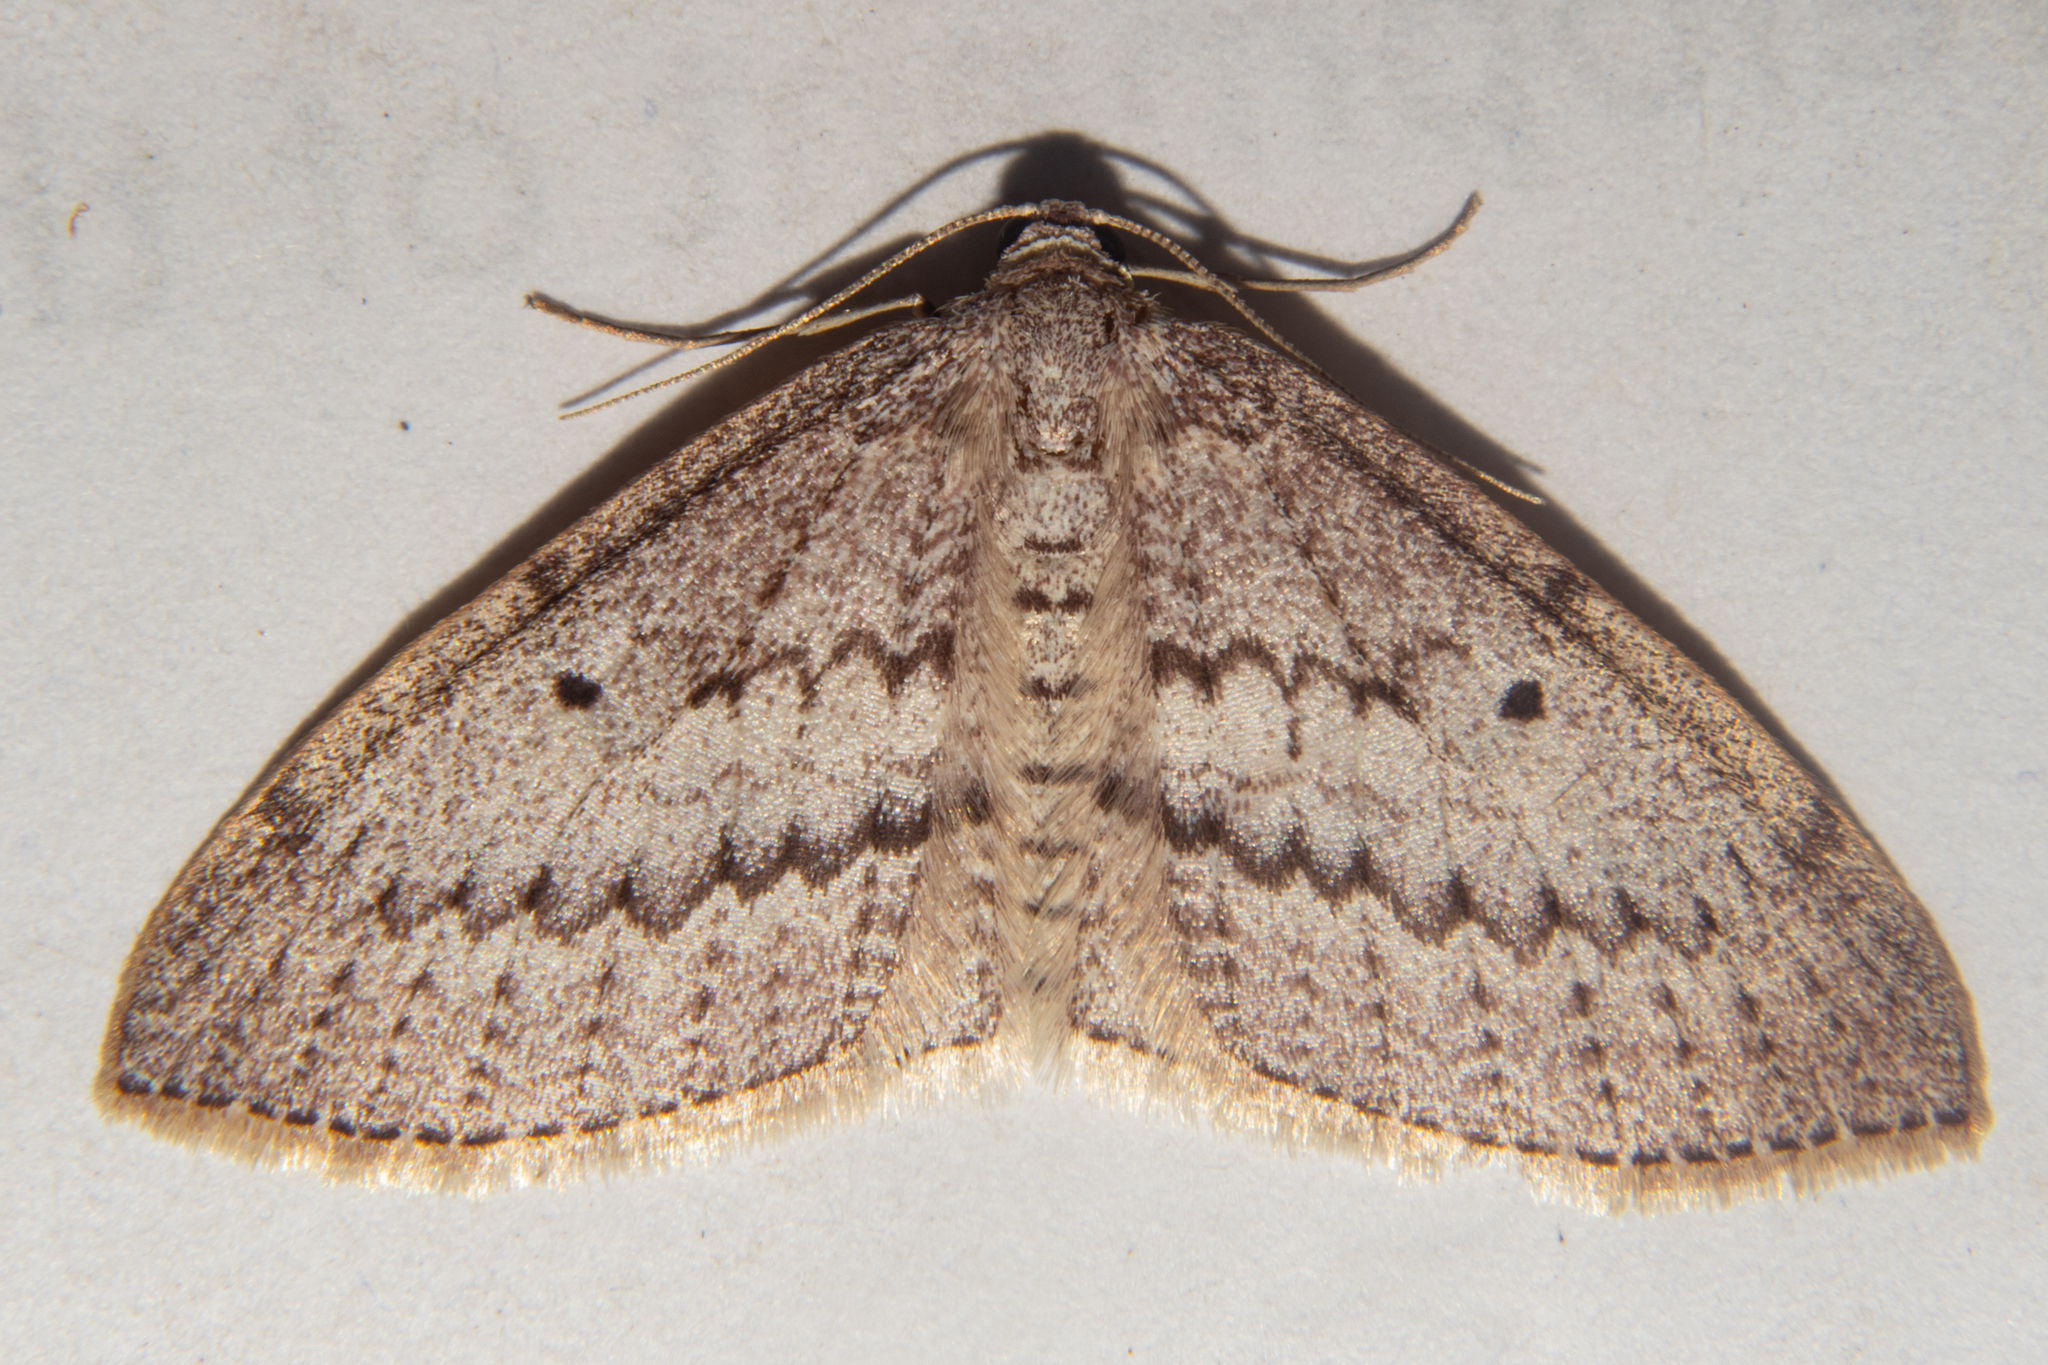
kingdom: Animalia
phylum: Arthropoda
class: Insecta
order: Lepidoptera
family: Geometridae
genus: Poecilasthena
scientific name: Poecilasthena schistaria
